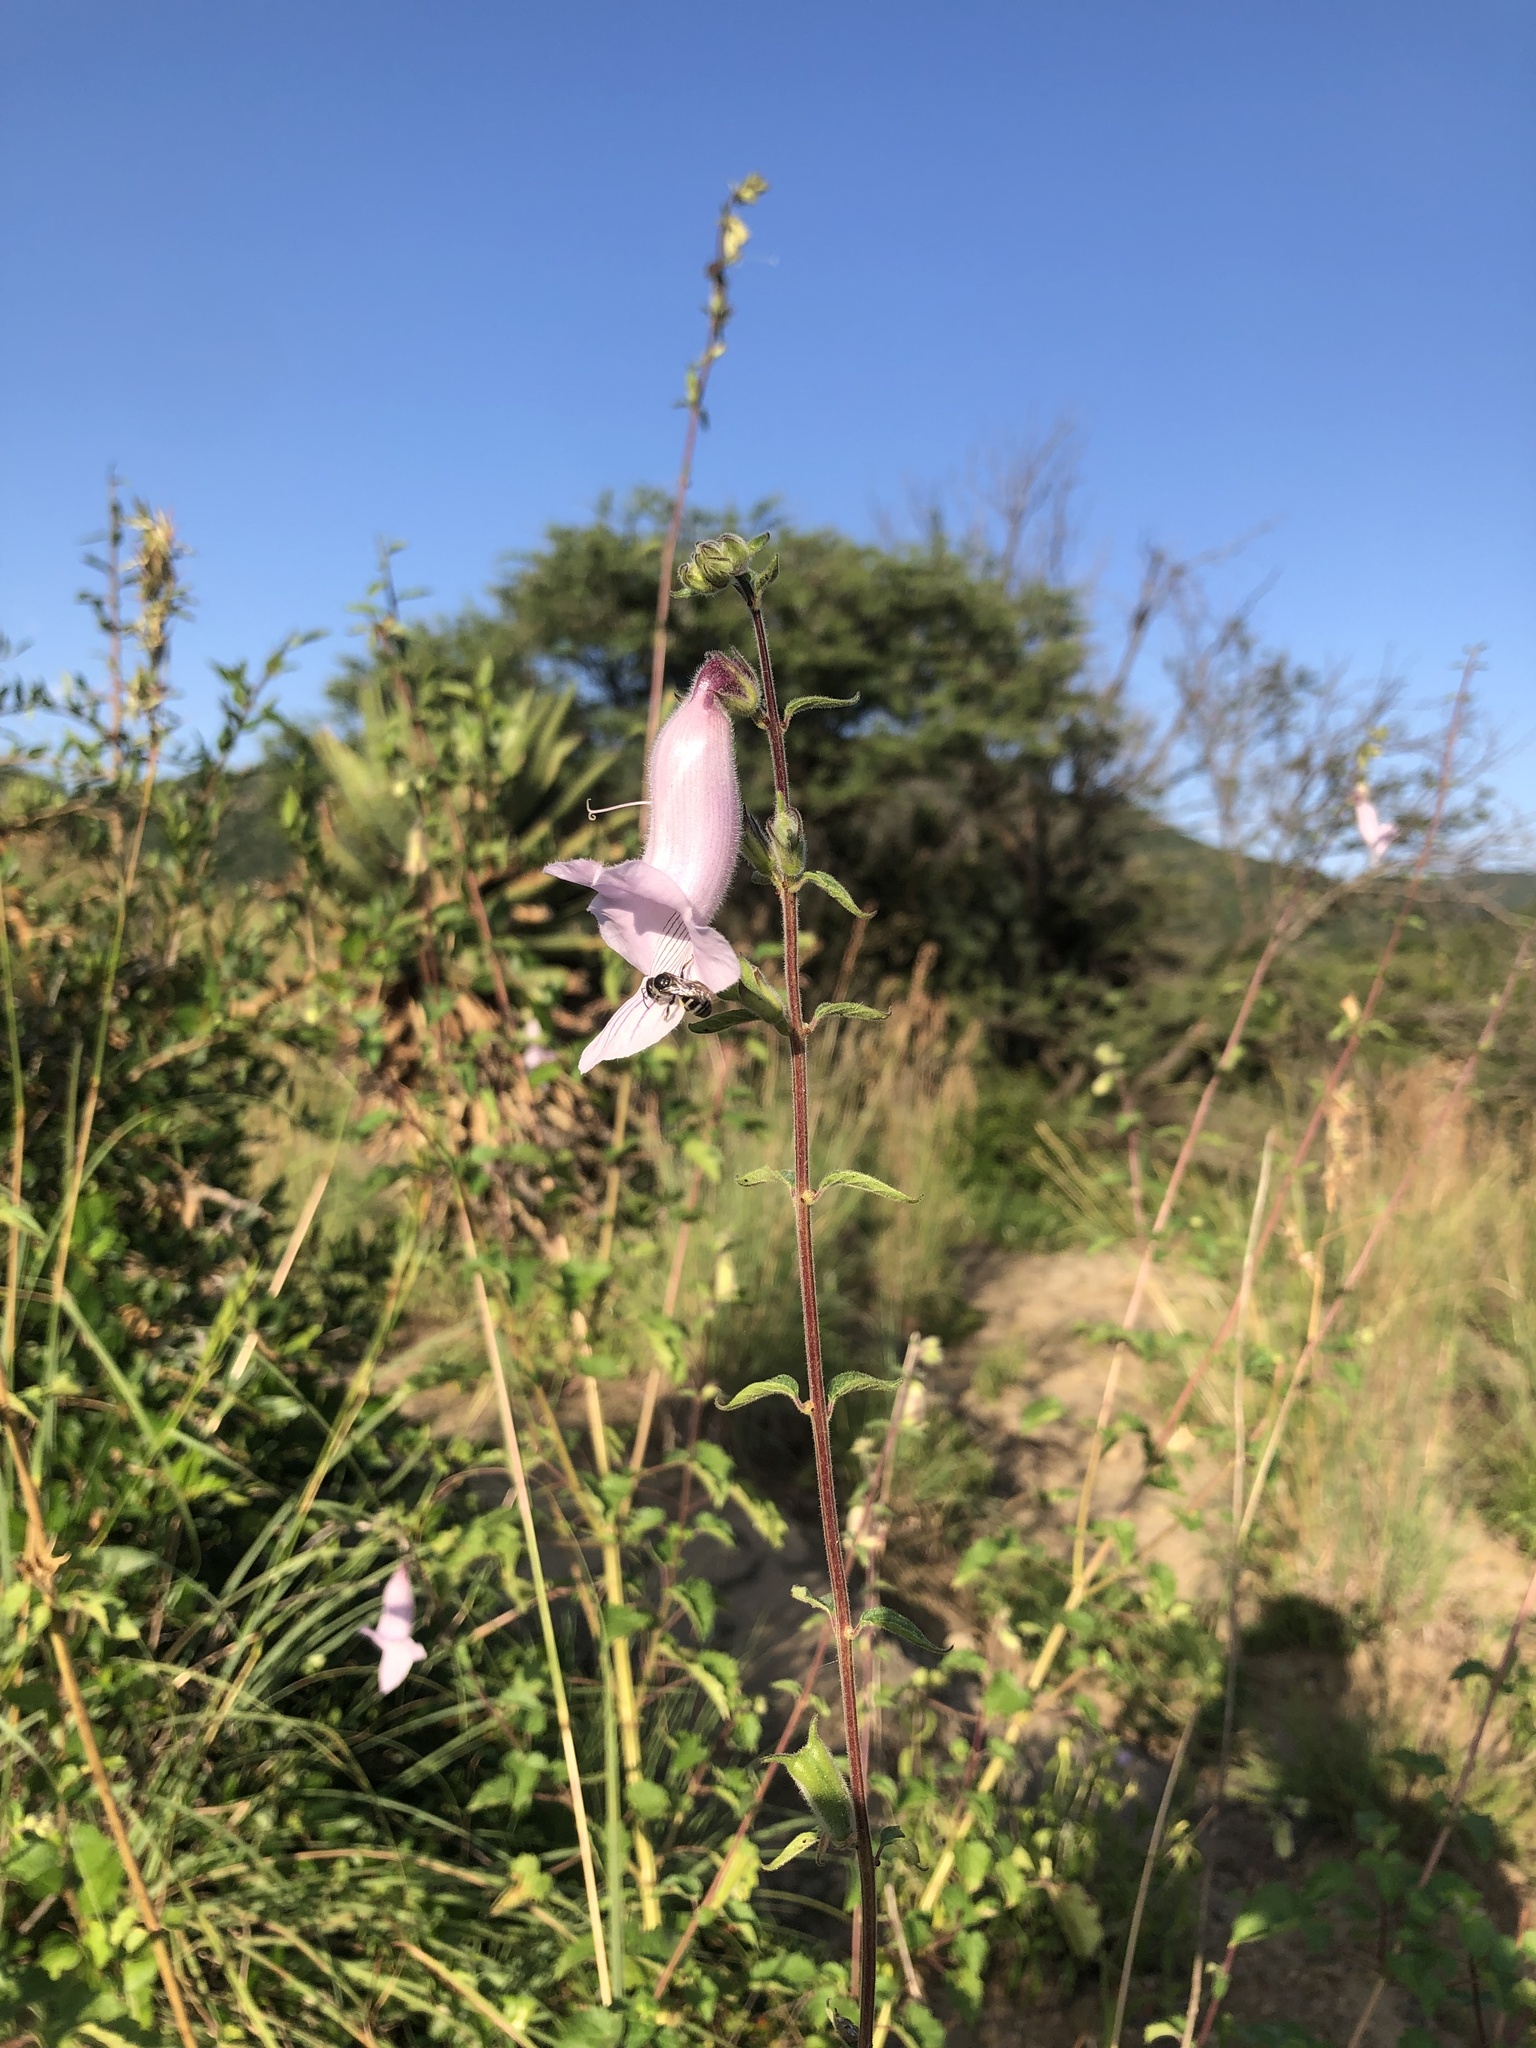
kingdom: Plantae
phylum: Tracheophyta
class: Magnoliopsida
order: Lamiales
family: Pedaliaceae
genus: Sesamum
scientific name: Sesamum trilobum
